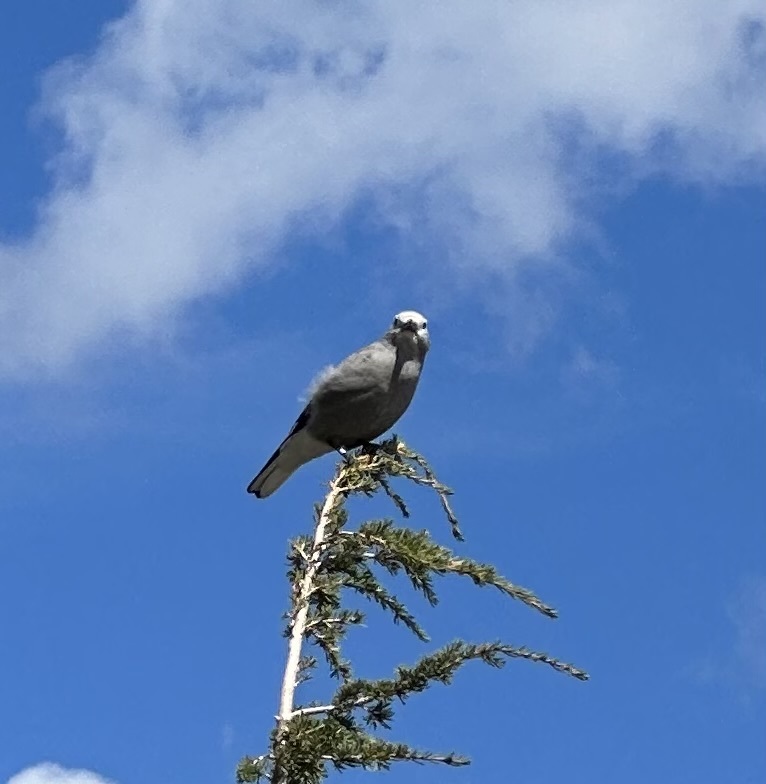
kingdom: Animalia
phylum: Chordata
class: Aves
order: Passeriformes
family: Corvidae
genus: Nucifraga
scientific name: Nucifraga columbiana
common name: Clark's nutcracker
